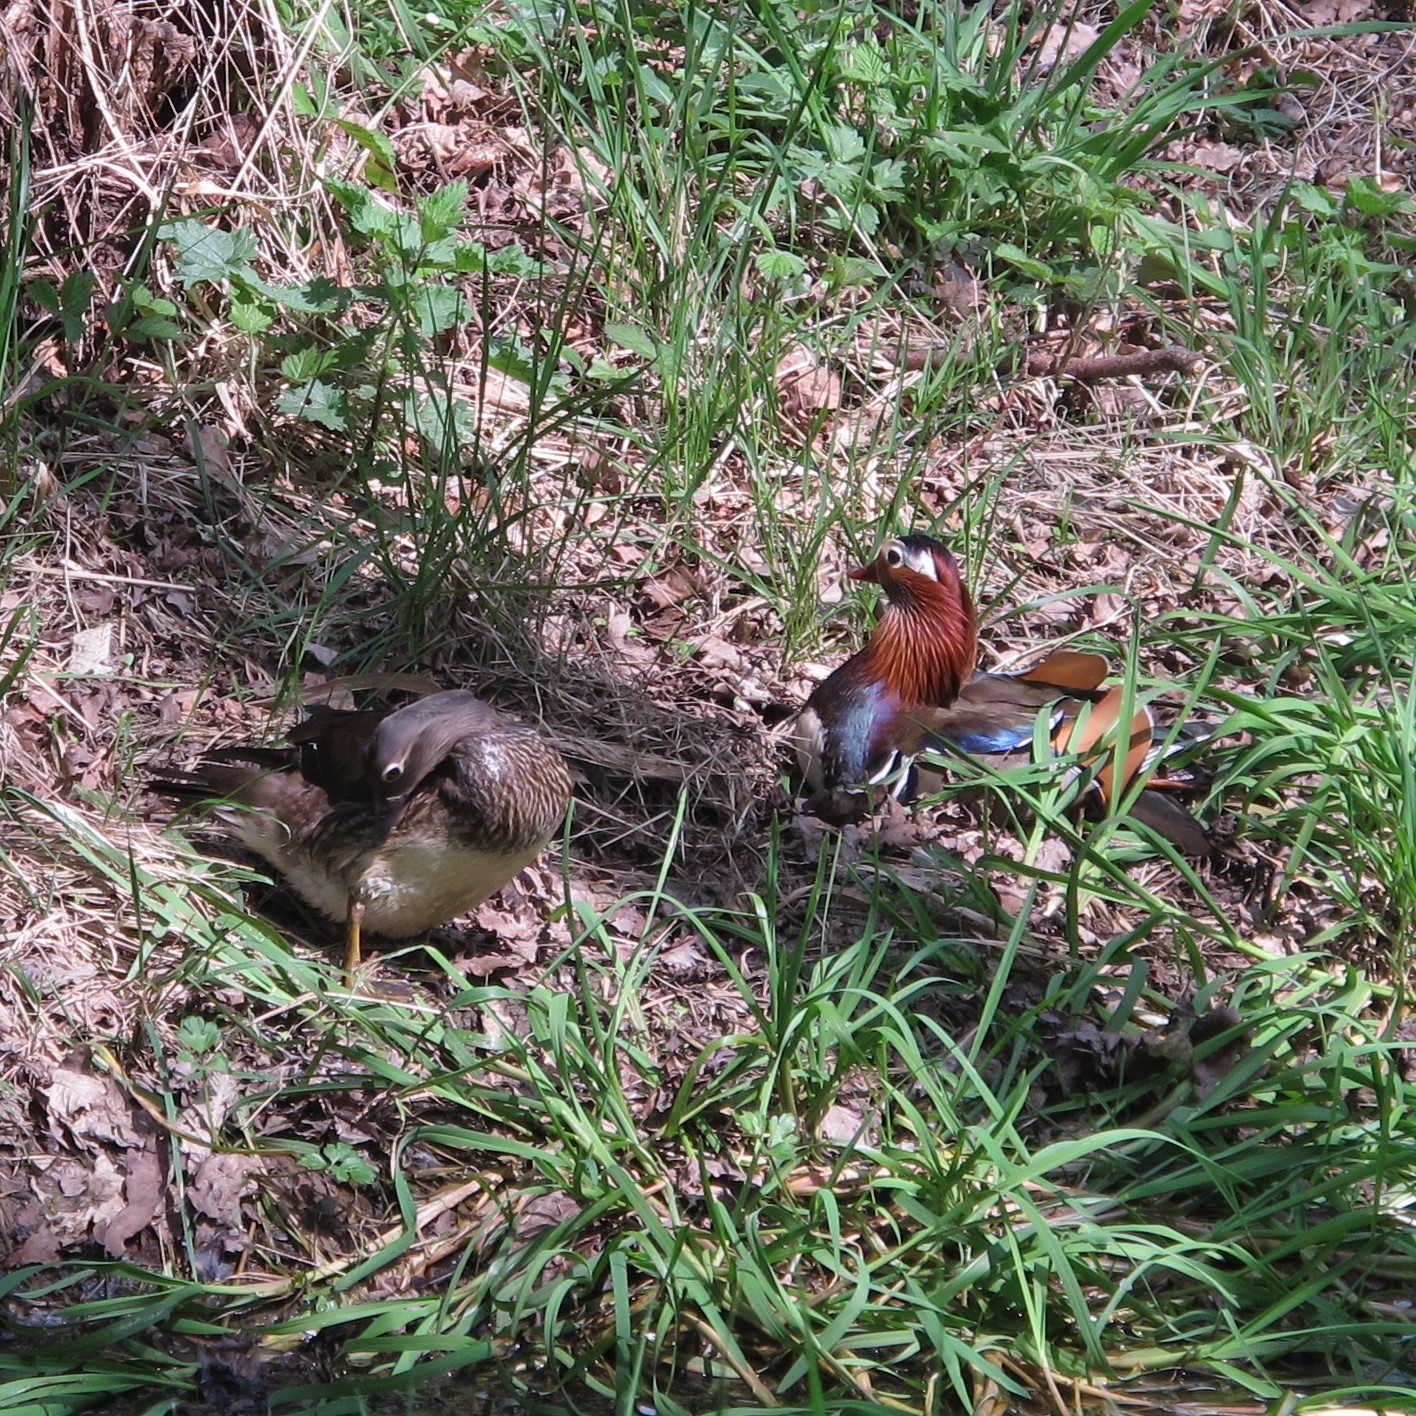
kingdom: Animalia
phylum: Chordata
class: Aves
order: Anseriformes
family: Anatidae
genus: Aix
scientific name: Aix galericulata
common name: Mandarin duck
